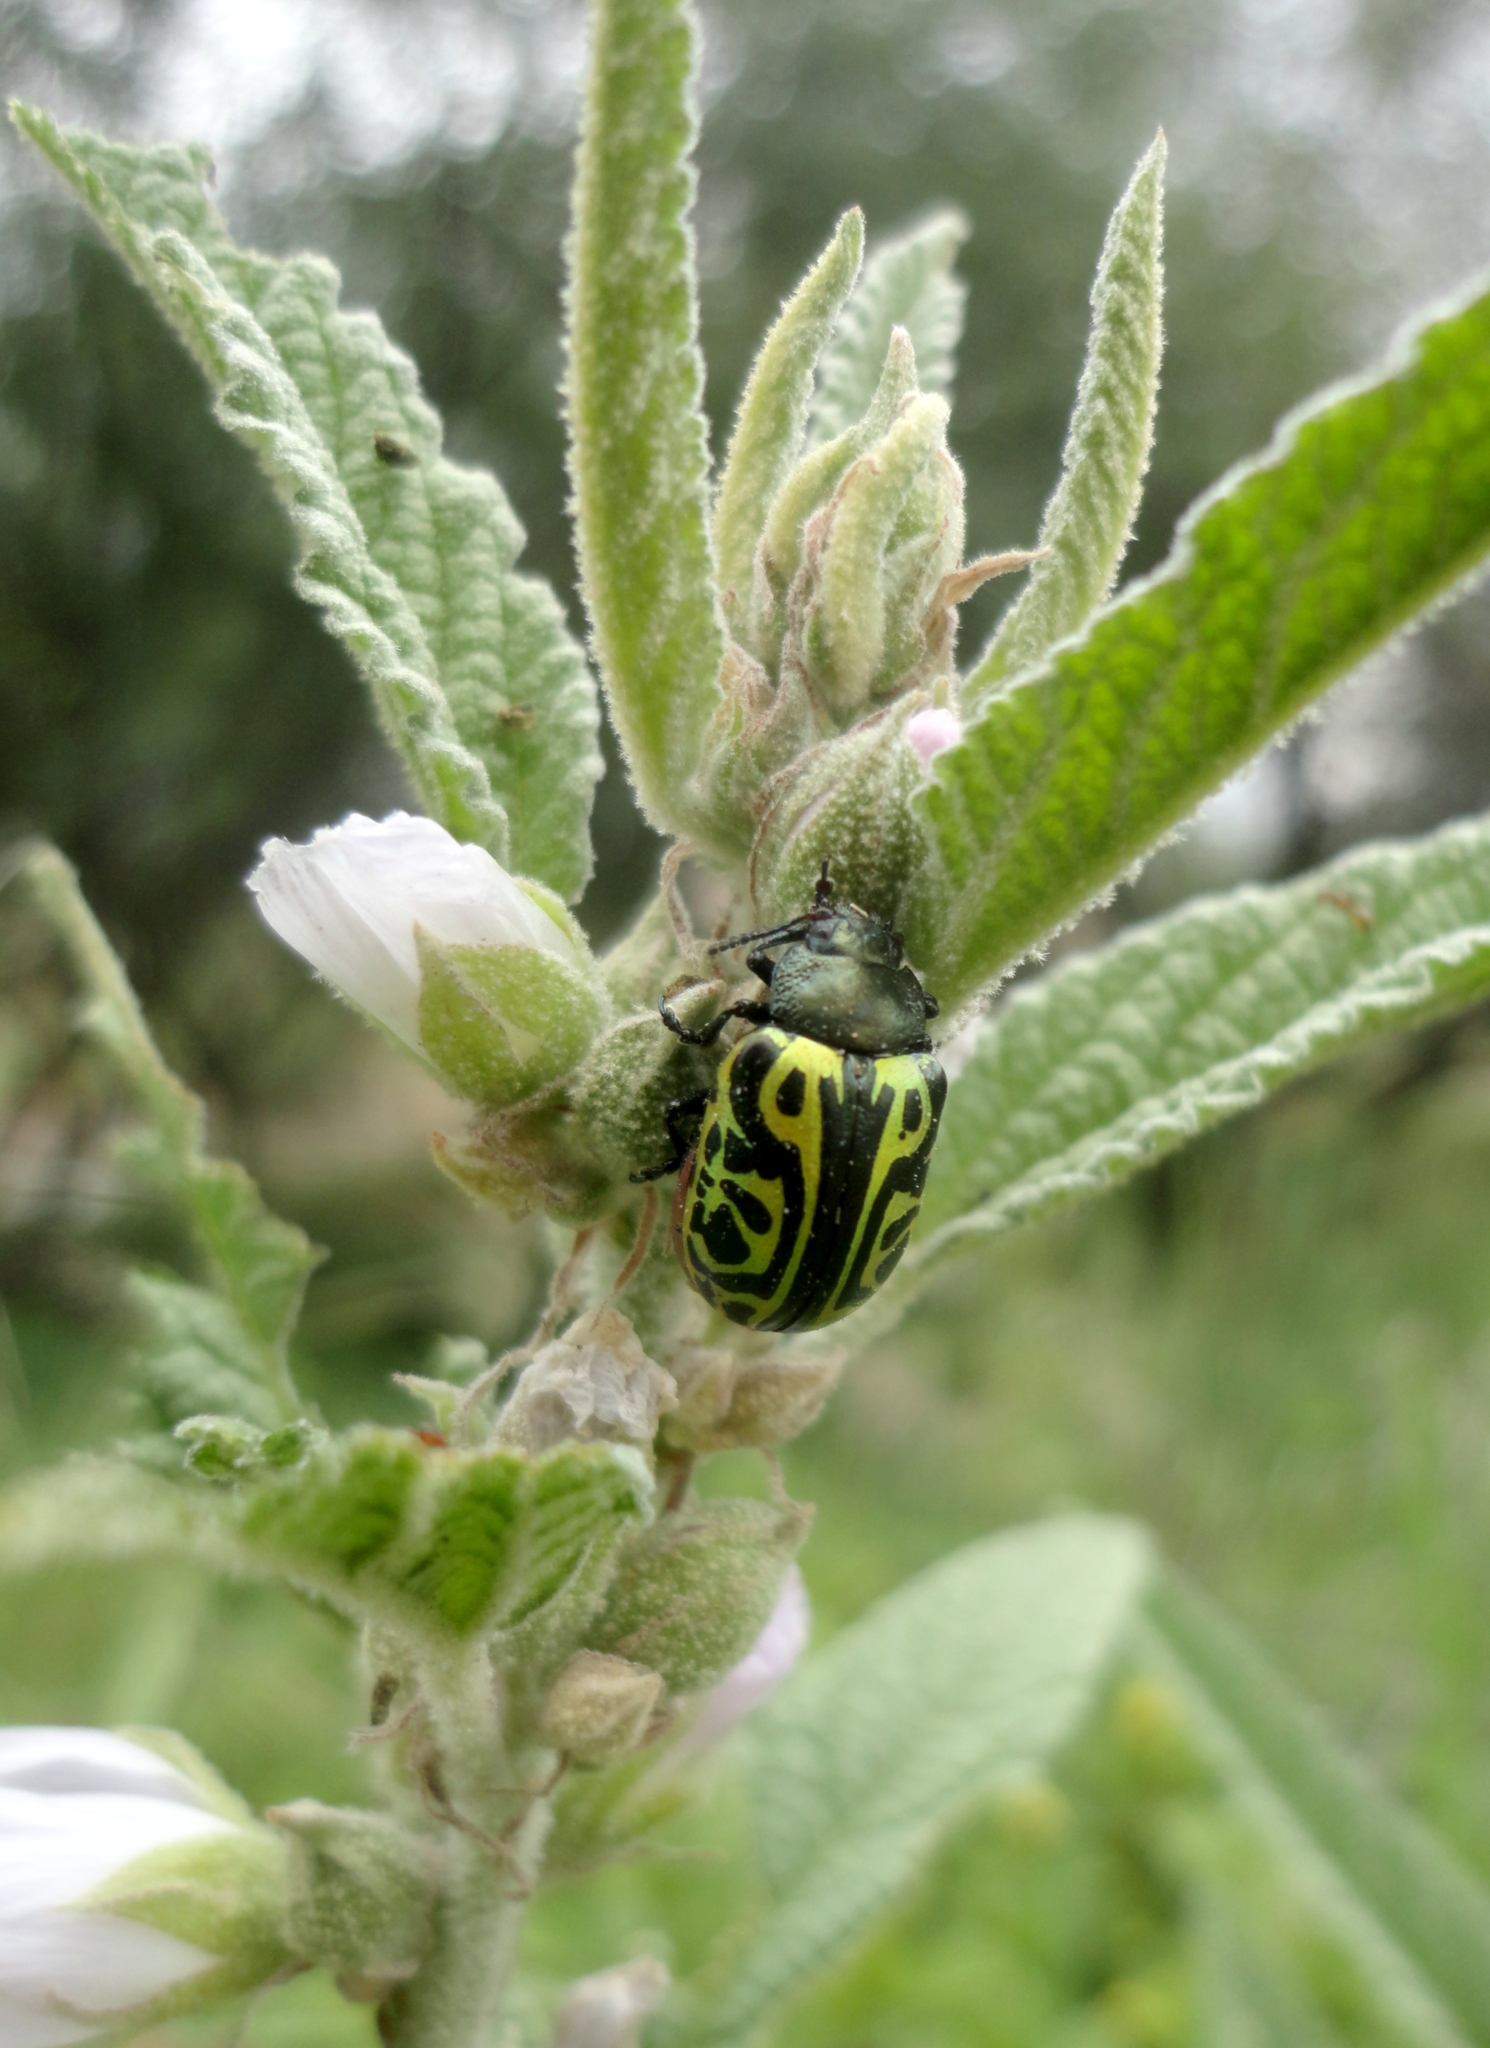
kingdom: Animalia
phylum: Arthropoda
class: Insecta
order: Coleoptera
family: Chrysomelidae
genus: Calligrapha
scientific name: Calligrapha mexicana
